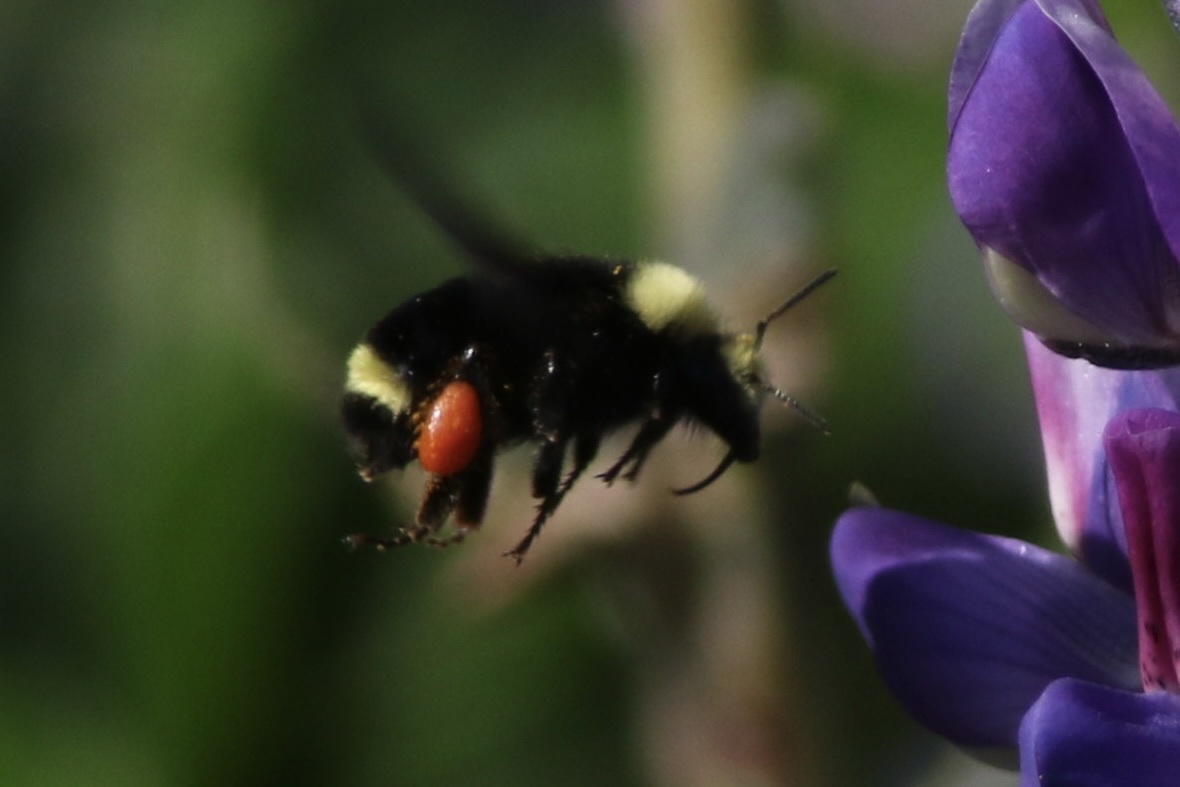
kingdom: Animalia
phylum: Arthropoda
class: Insecta
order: Hymenoptera
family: Apidae
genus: Bombus
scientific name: Bombus vosnesenskii
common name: Vosnesensky bumble bee
